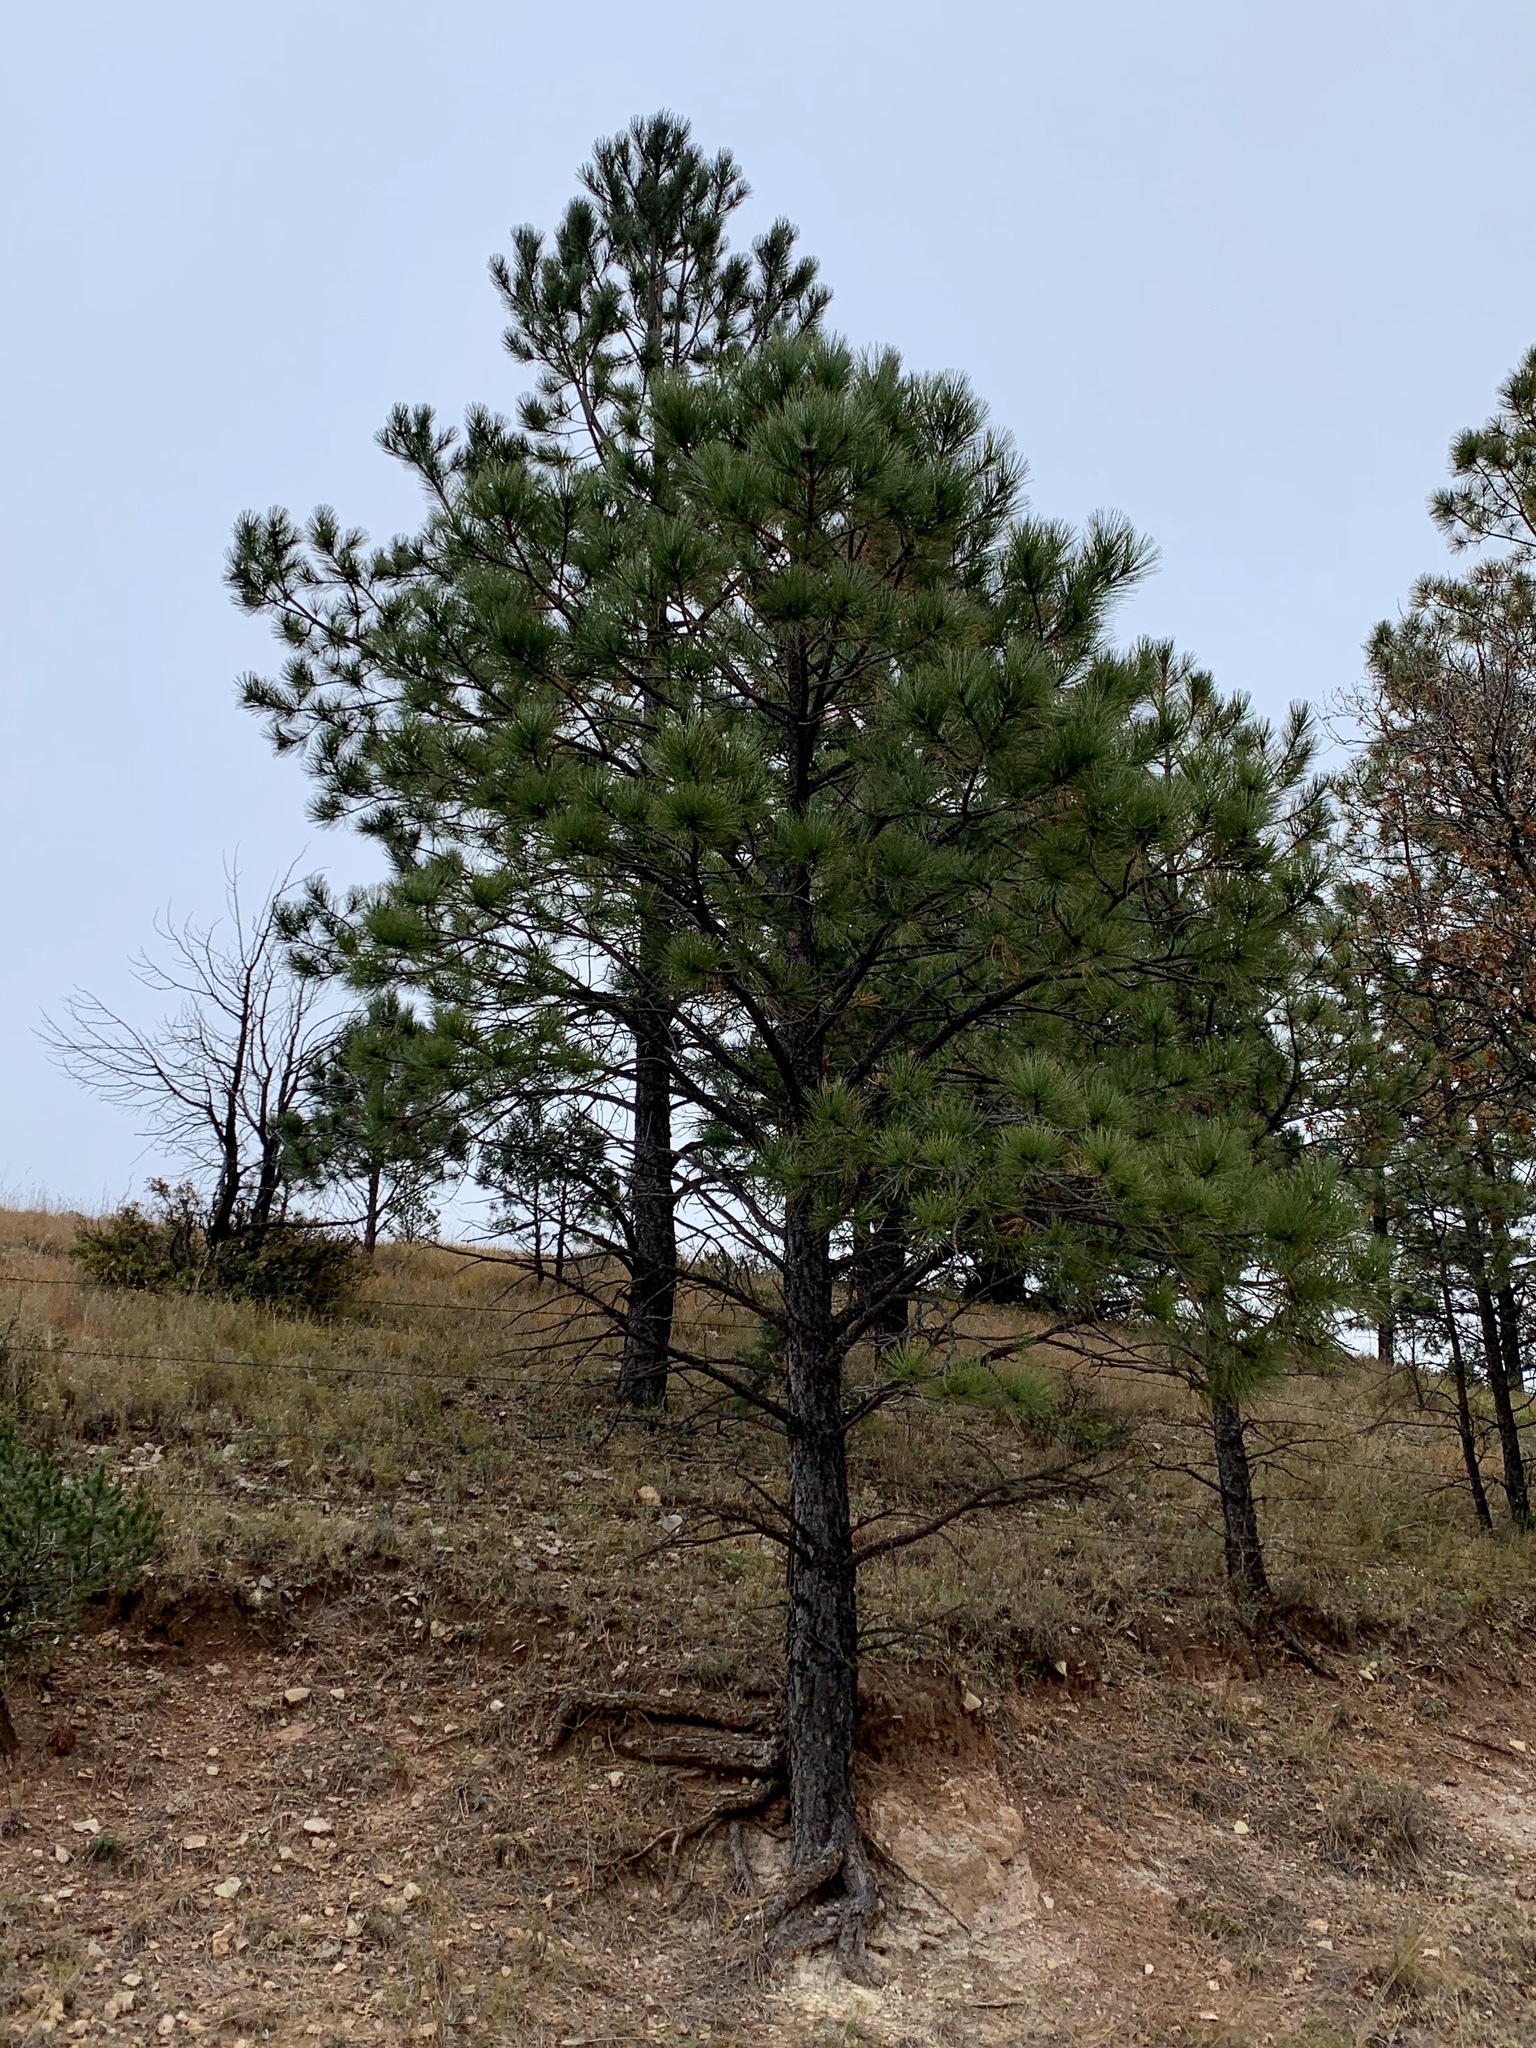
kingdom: Plantae
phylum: Tracheophyta
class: Pinopsida
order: Pinales
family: Pinaceae
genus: Pinus
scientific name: Pinus ponderosa
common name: Western yellow-pine
